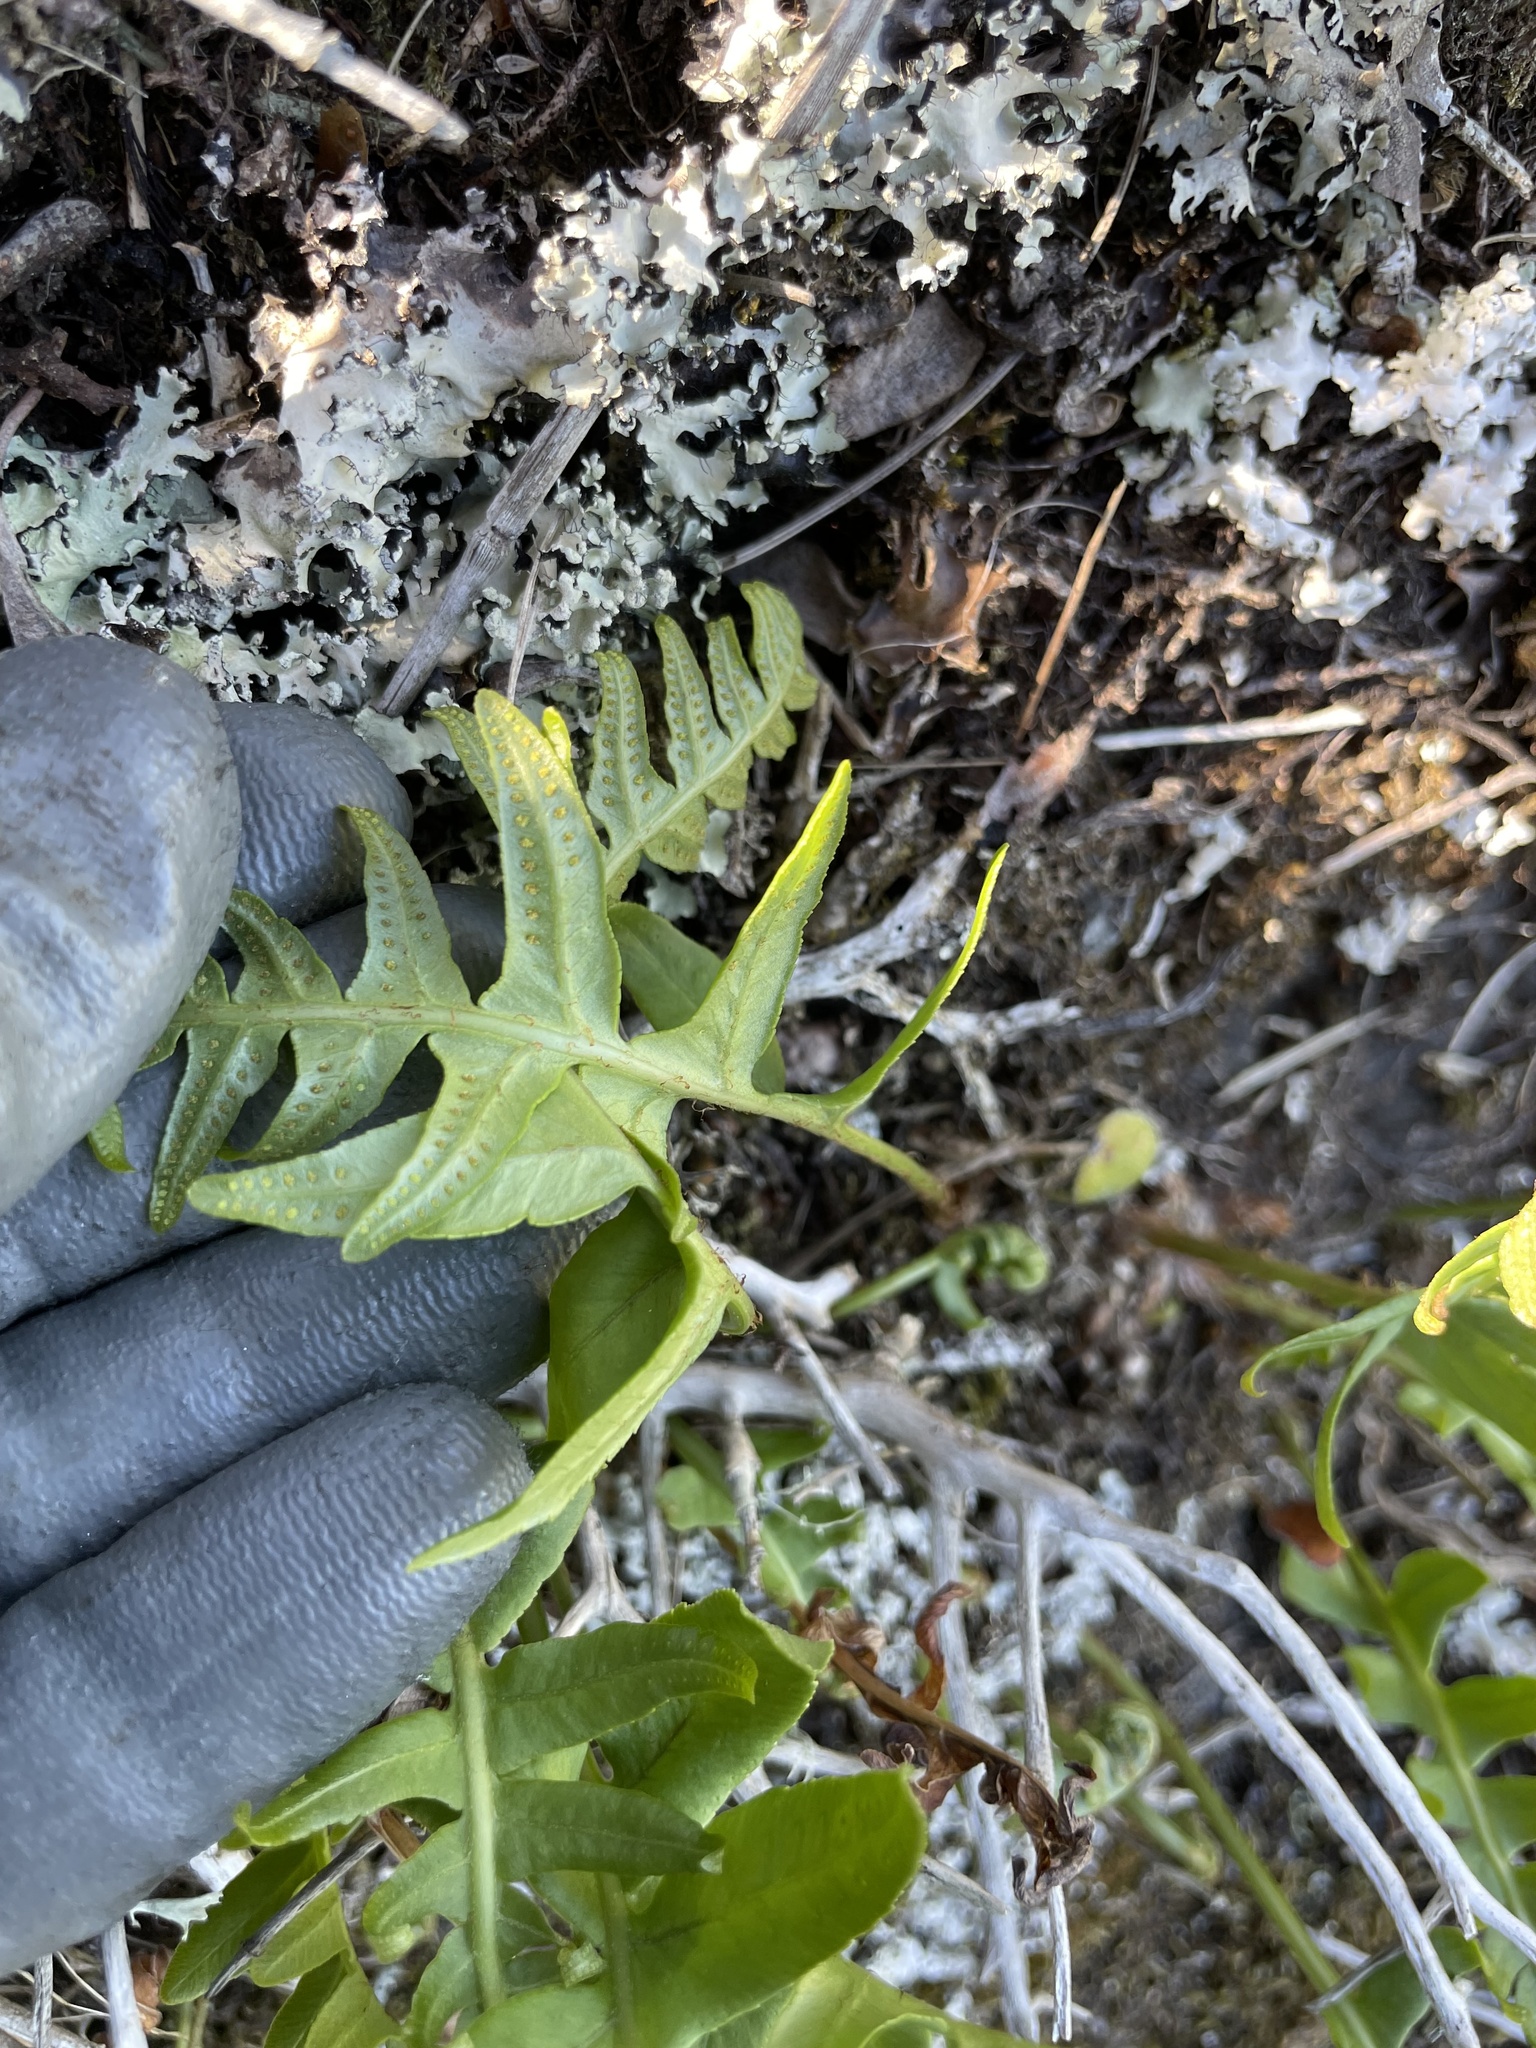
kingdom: Plantae
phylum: Tracheophyta
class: Polypodiopsida
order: Polypodiales
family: Polypodiaceae
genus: Polypodium
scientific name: Polypodium vulgare
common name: Common polypody
